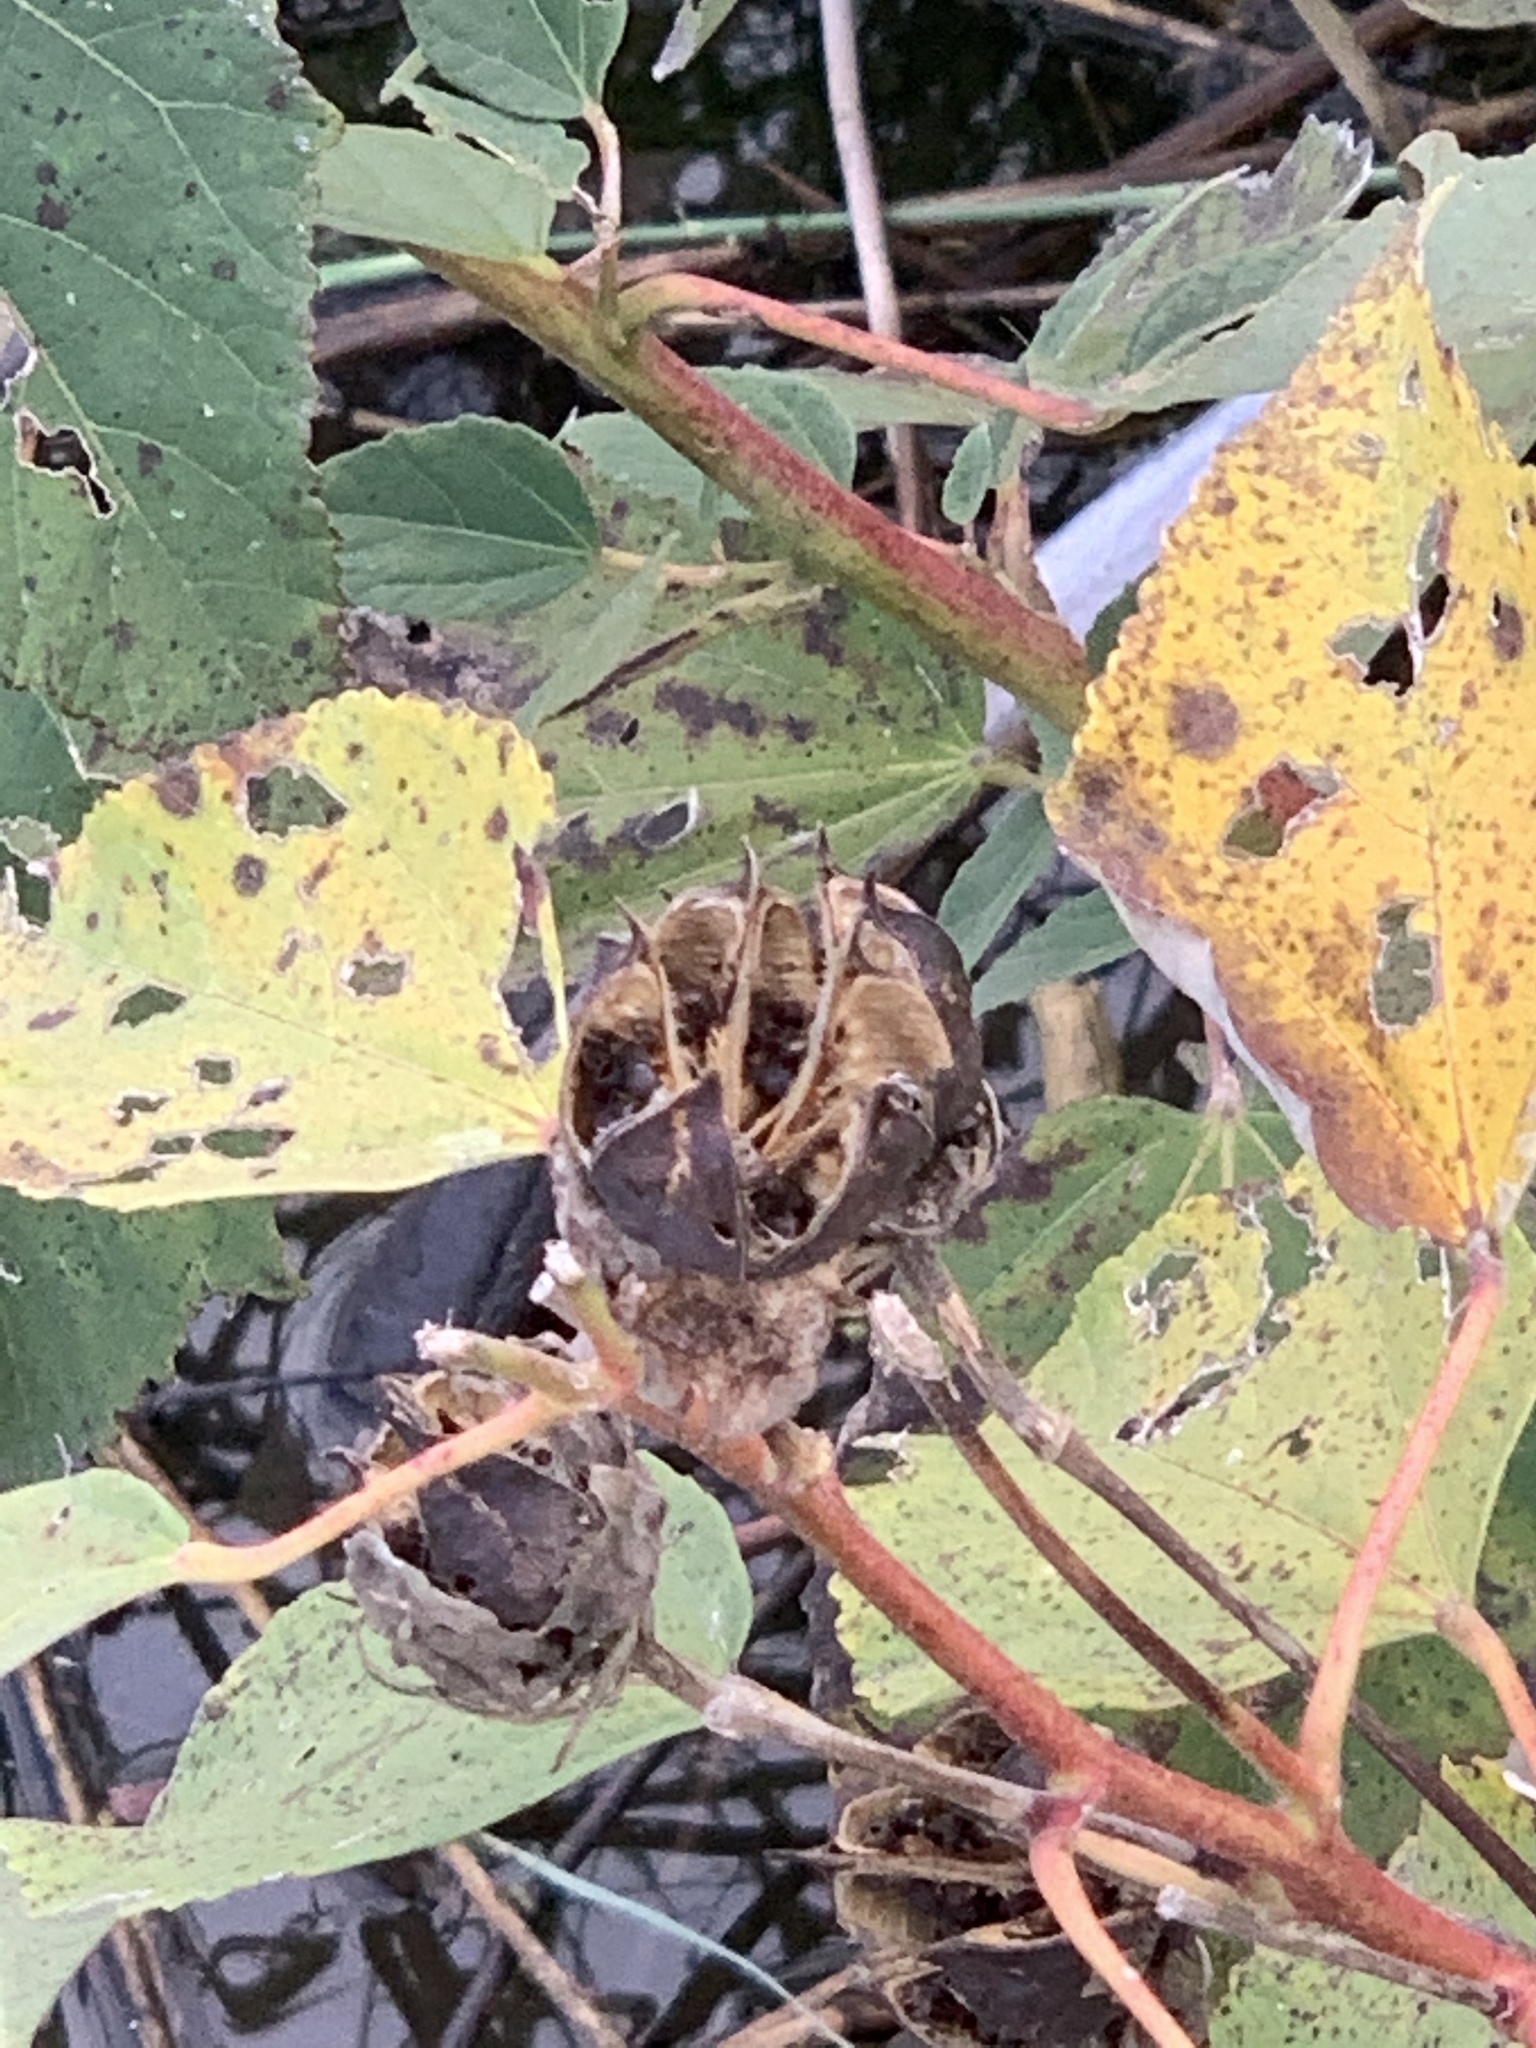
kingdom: Plantae
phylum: Tracheophyta
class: Magnoliopsida
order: Malvales
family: Malvaceae
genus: Hibiscus
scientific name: Hibiscus moscheutos
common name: Common rose-mallow
